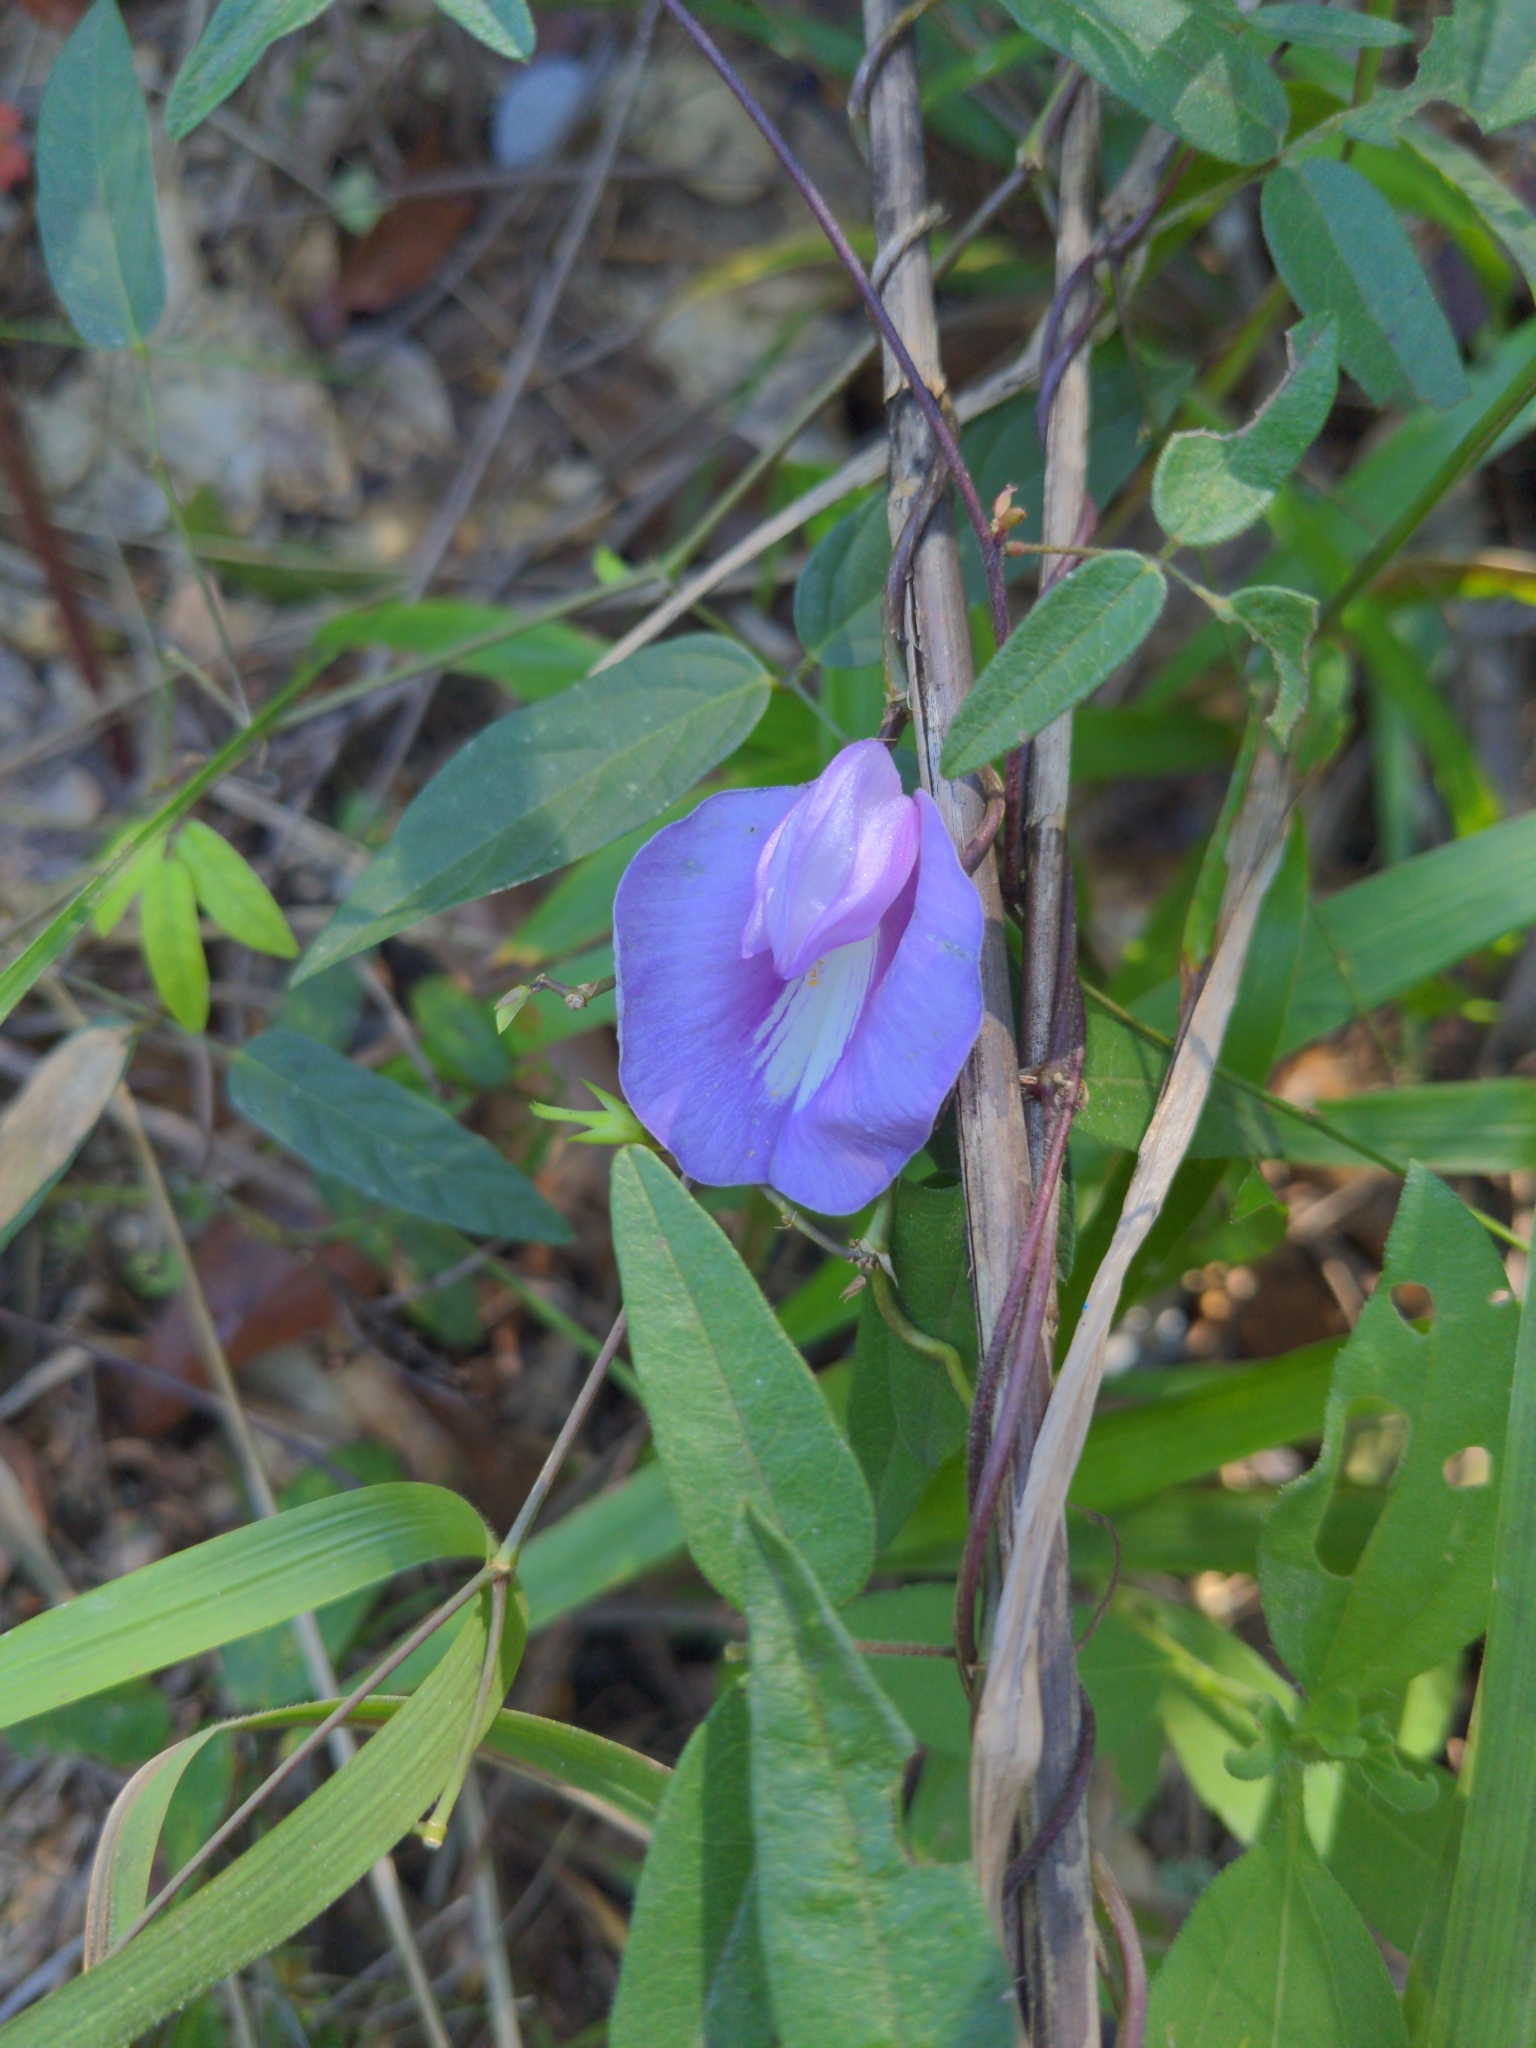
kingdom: Plantae
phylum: Tracheophyta
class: Magnoliopsida
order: Fabales
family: Fabaceae
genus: Centrosema
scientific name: Centrosema virginianum
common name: Butterfly-pea
